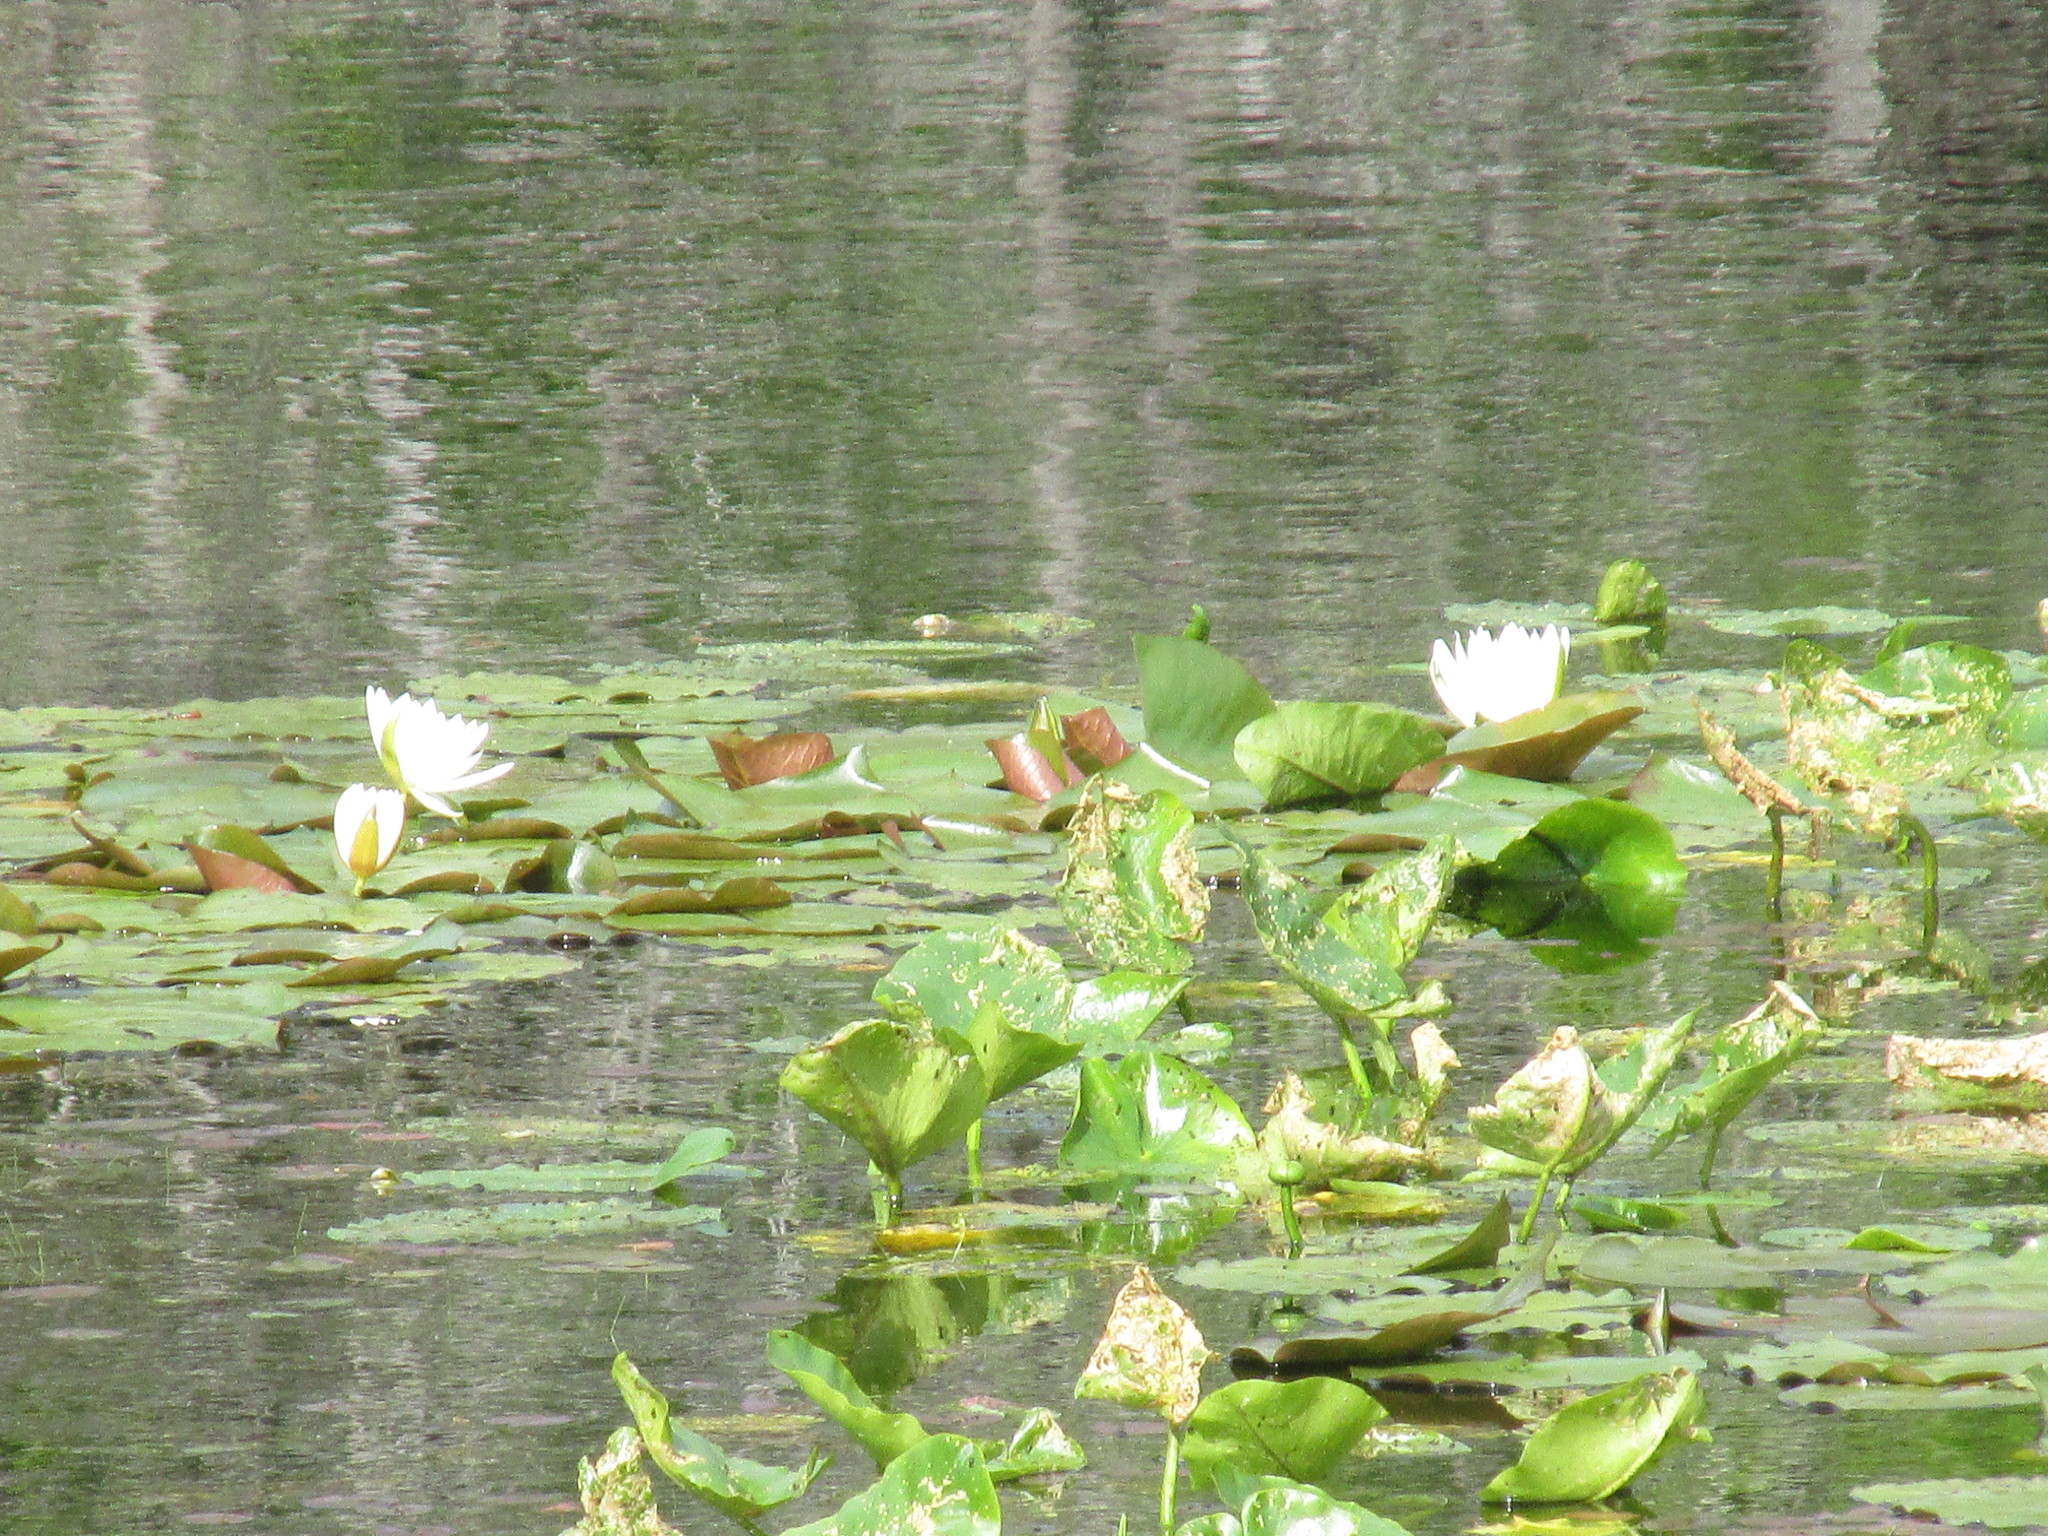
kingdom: Plantae
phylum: Tracheophyta
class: Magnoliopsida
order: Nymphaeales
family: Nymphaeaceae
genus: Nymphaea
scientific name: Nymphaea odorata
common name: Fragrant water-lily
